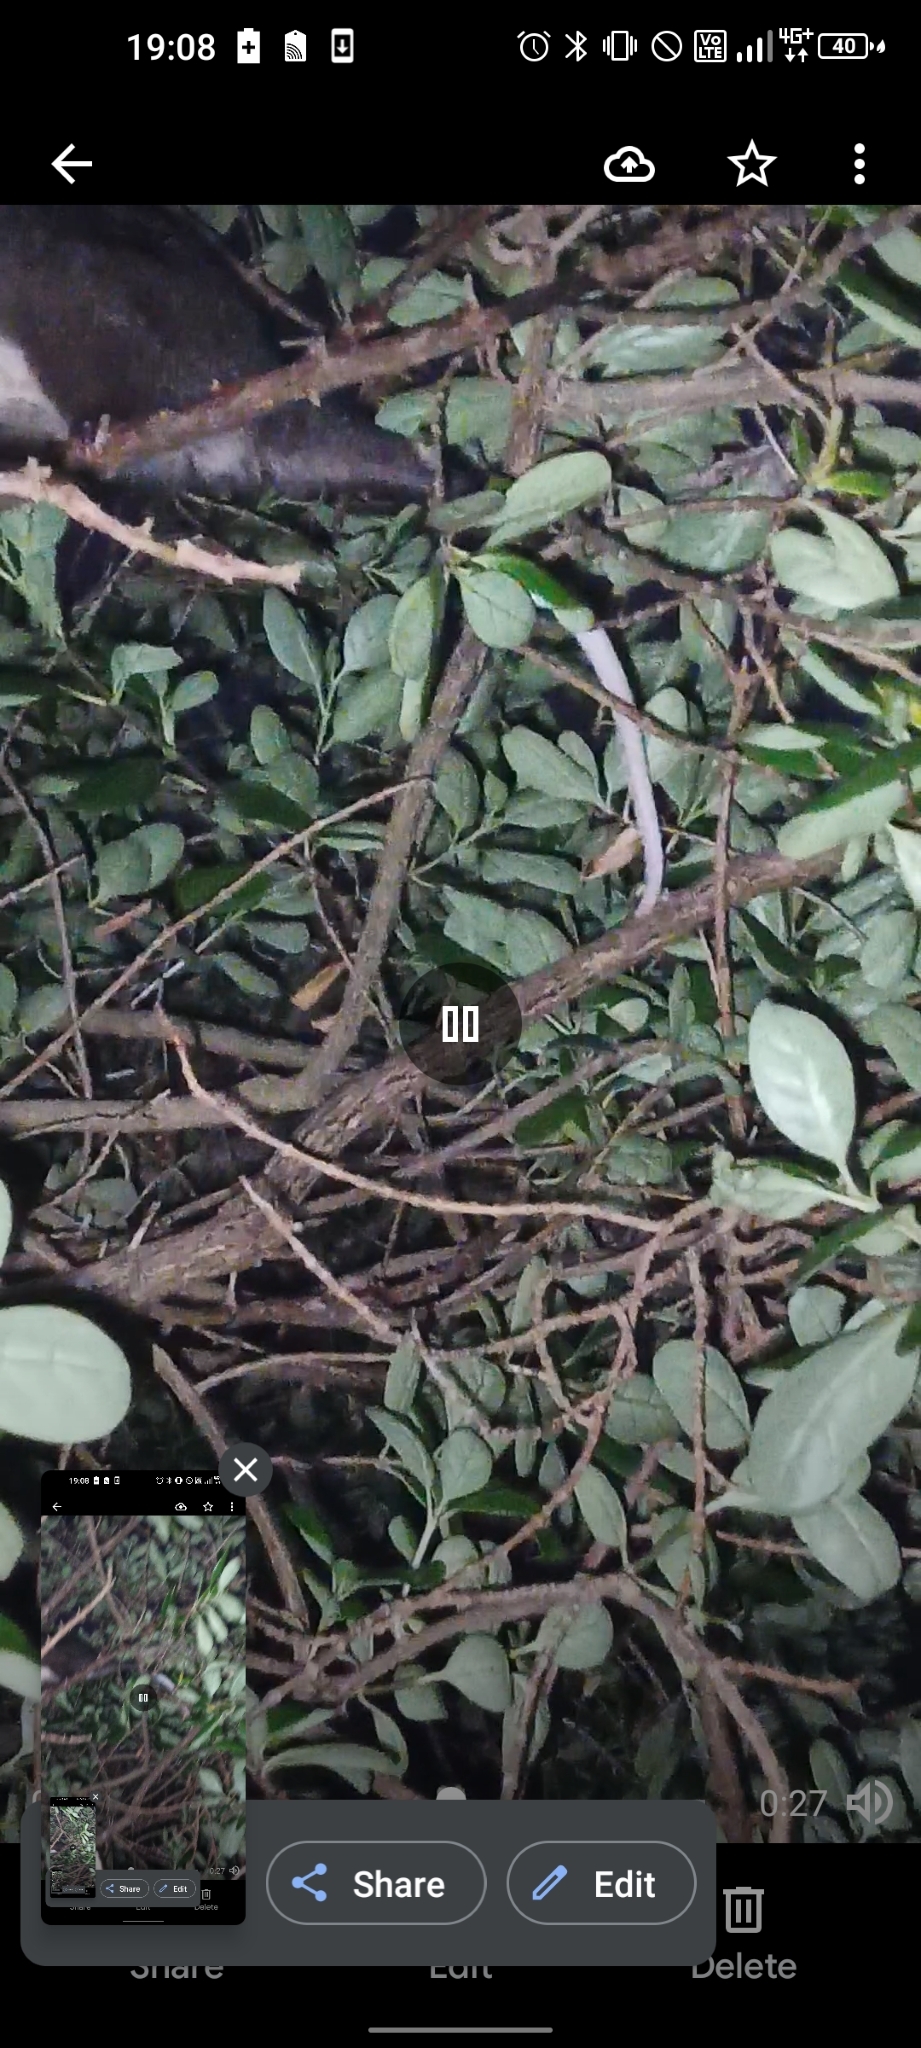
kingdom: Animalia
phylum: Chordata
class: Mammalia
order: Diprotodontia
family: Pseudocheiridae
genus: Pseudocheirus
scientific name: Pseudocheirus peregrinus
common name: Common ringtail possum
